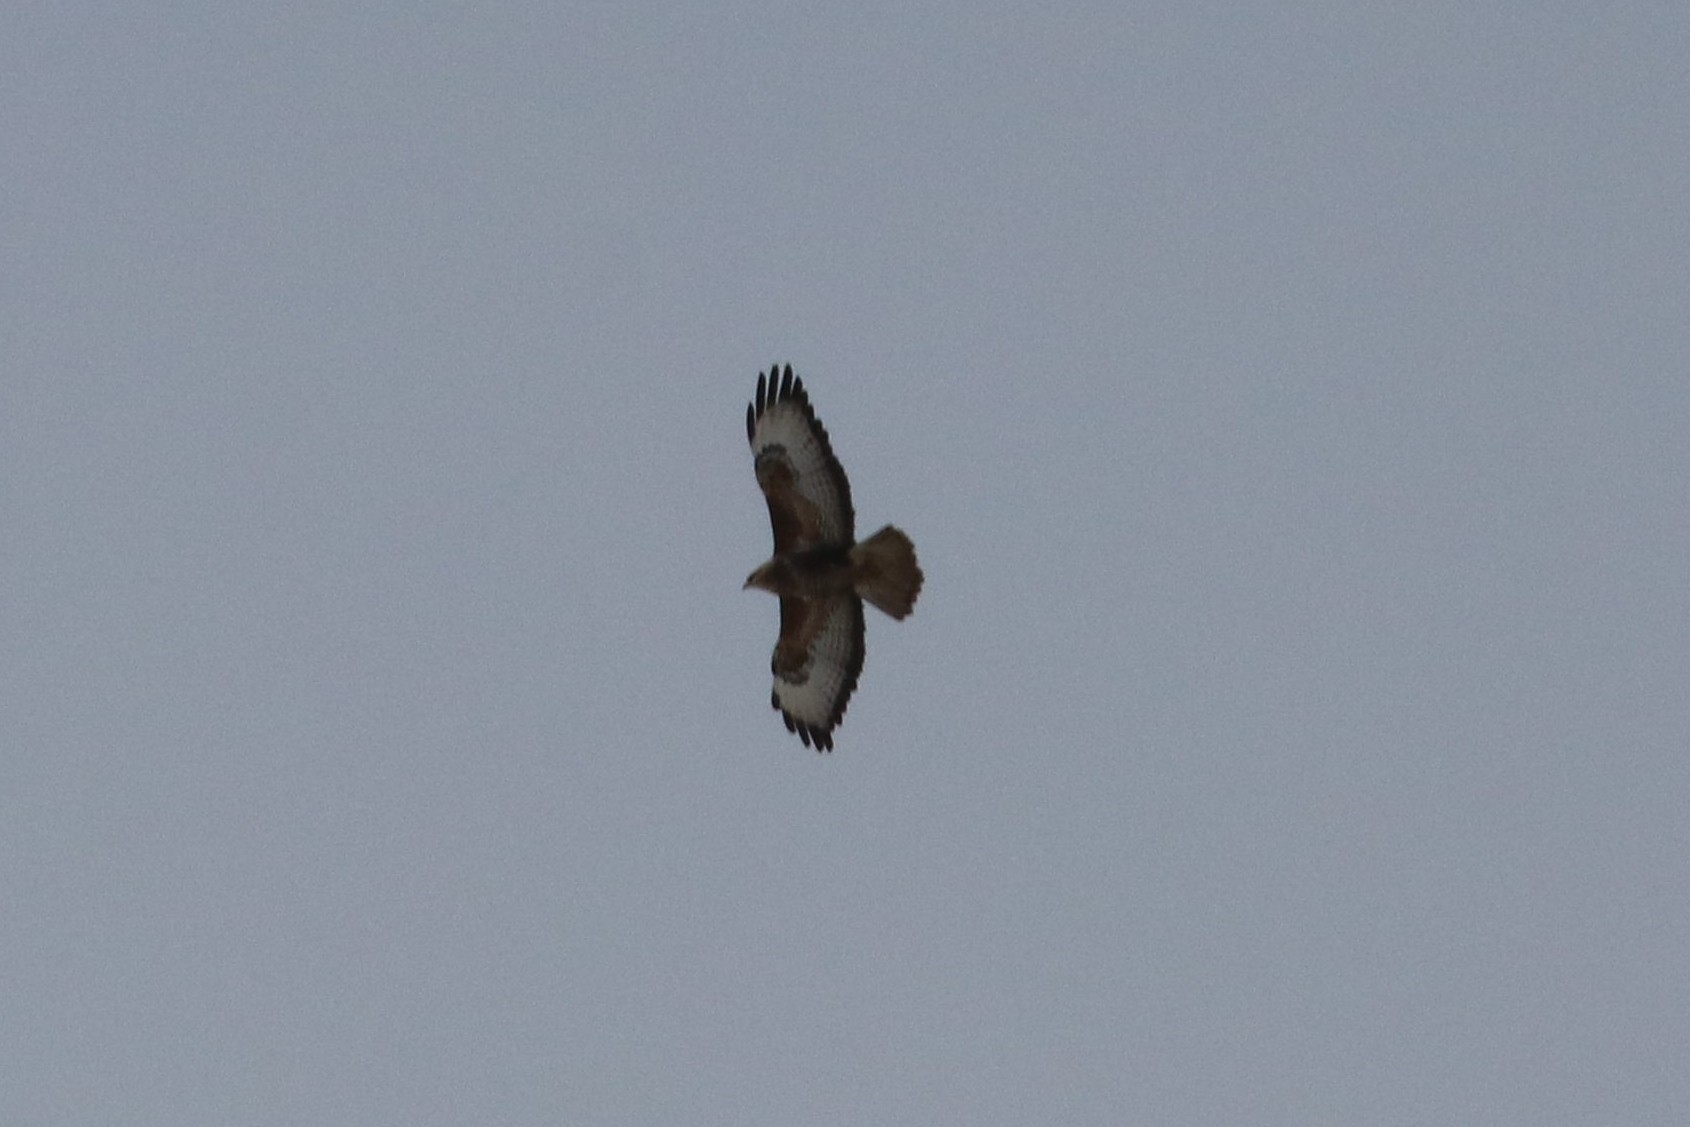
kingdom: Animalia
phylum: Chordata
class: Aves
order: Accipitriformes
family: Accipitridae
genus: Buteo
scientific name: Buteo buteo
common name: Common buzzard
